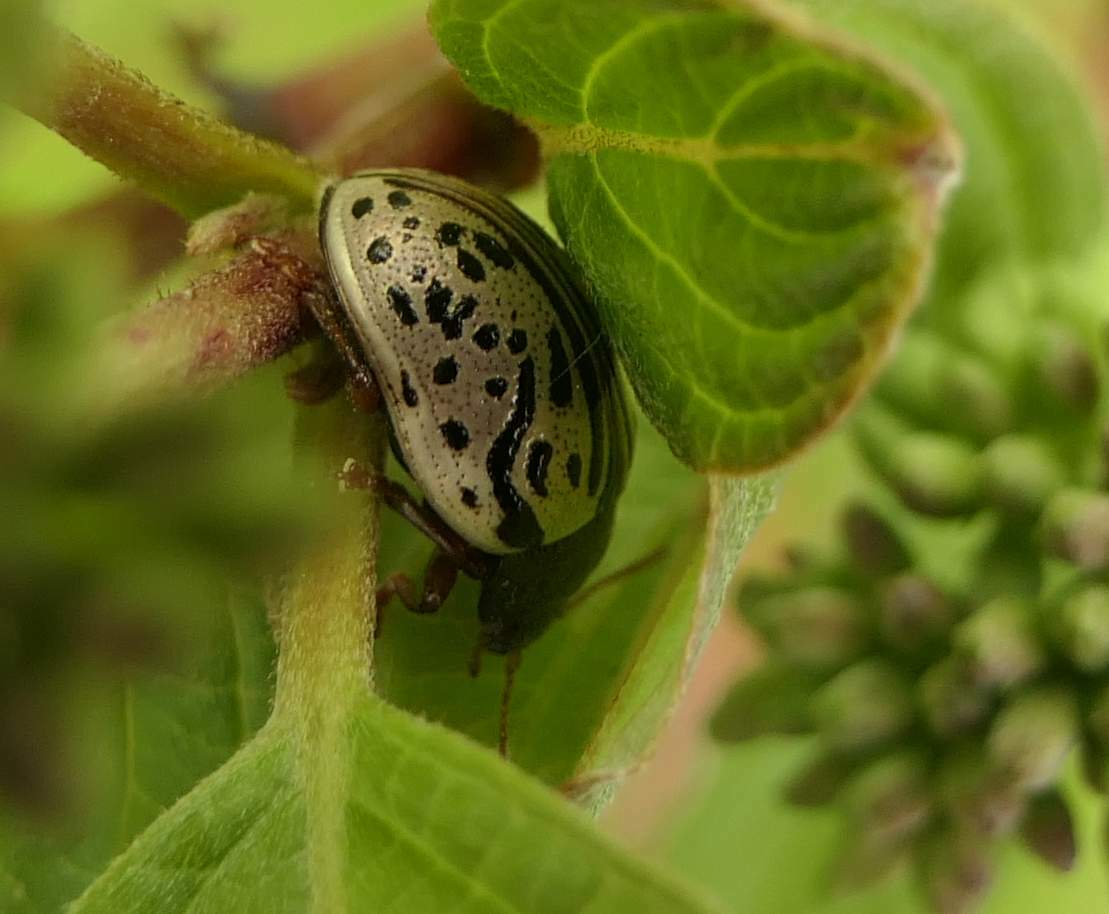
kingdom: Animalia
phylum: Arthropoda
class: Insecta
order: Coleoptera
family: Chrysomelidae
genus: Calligrapha
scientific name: Calligrapha philadelphica
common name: Dogwood leaf beetle
